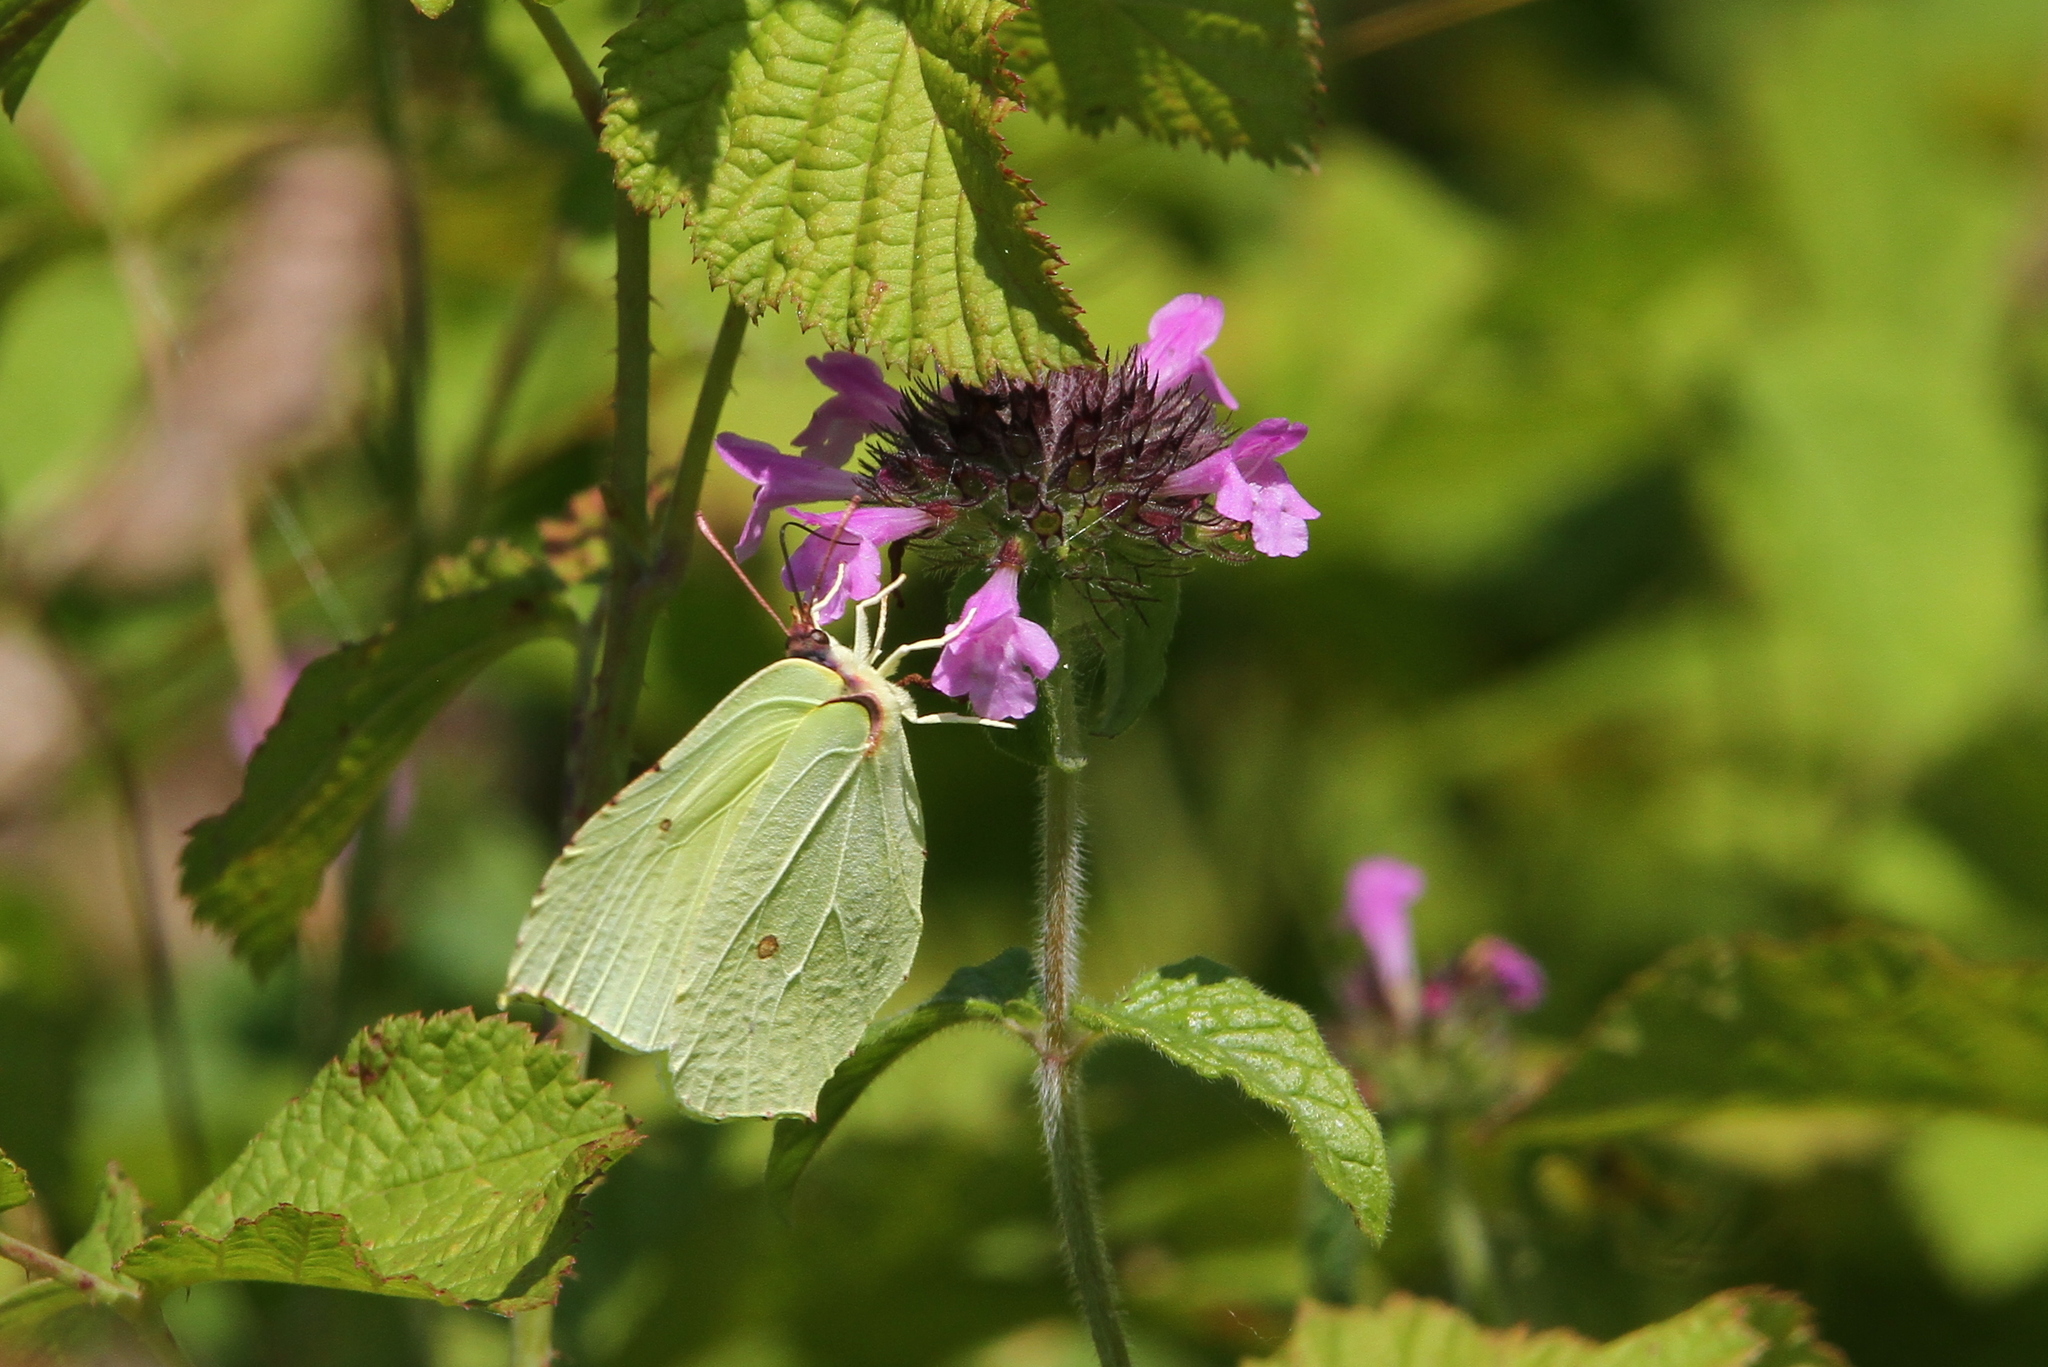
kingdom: Animalia
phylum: Arthropoda
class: Insecta
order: Lepidoptera
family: Pieridae
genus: Gonepteryx
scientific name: Gonepteryx rhamni
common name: Brimstone
